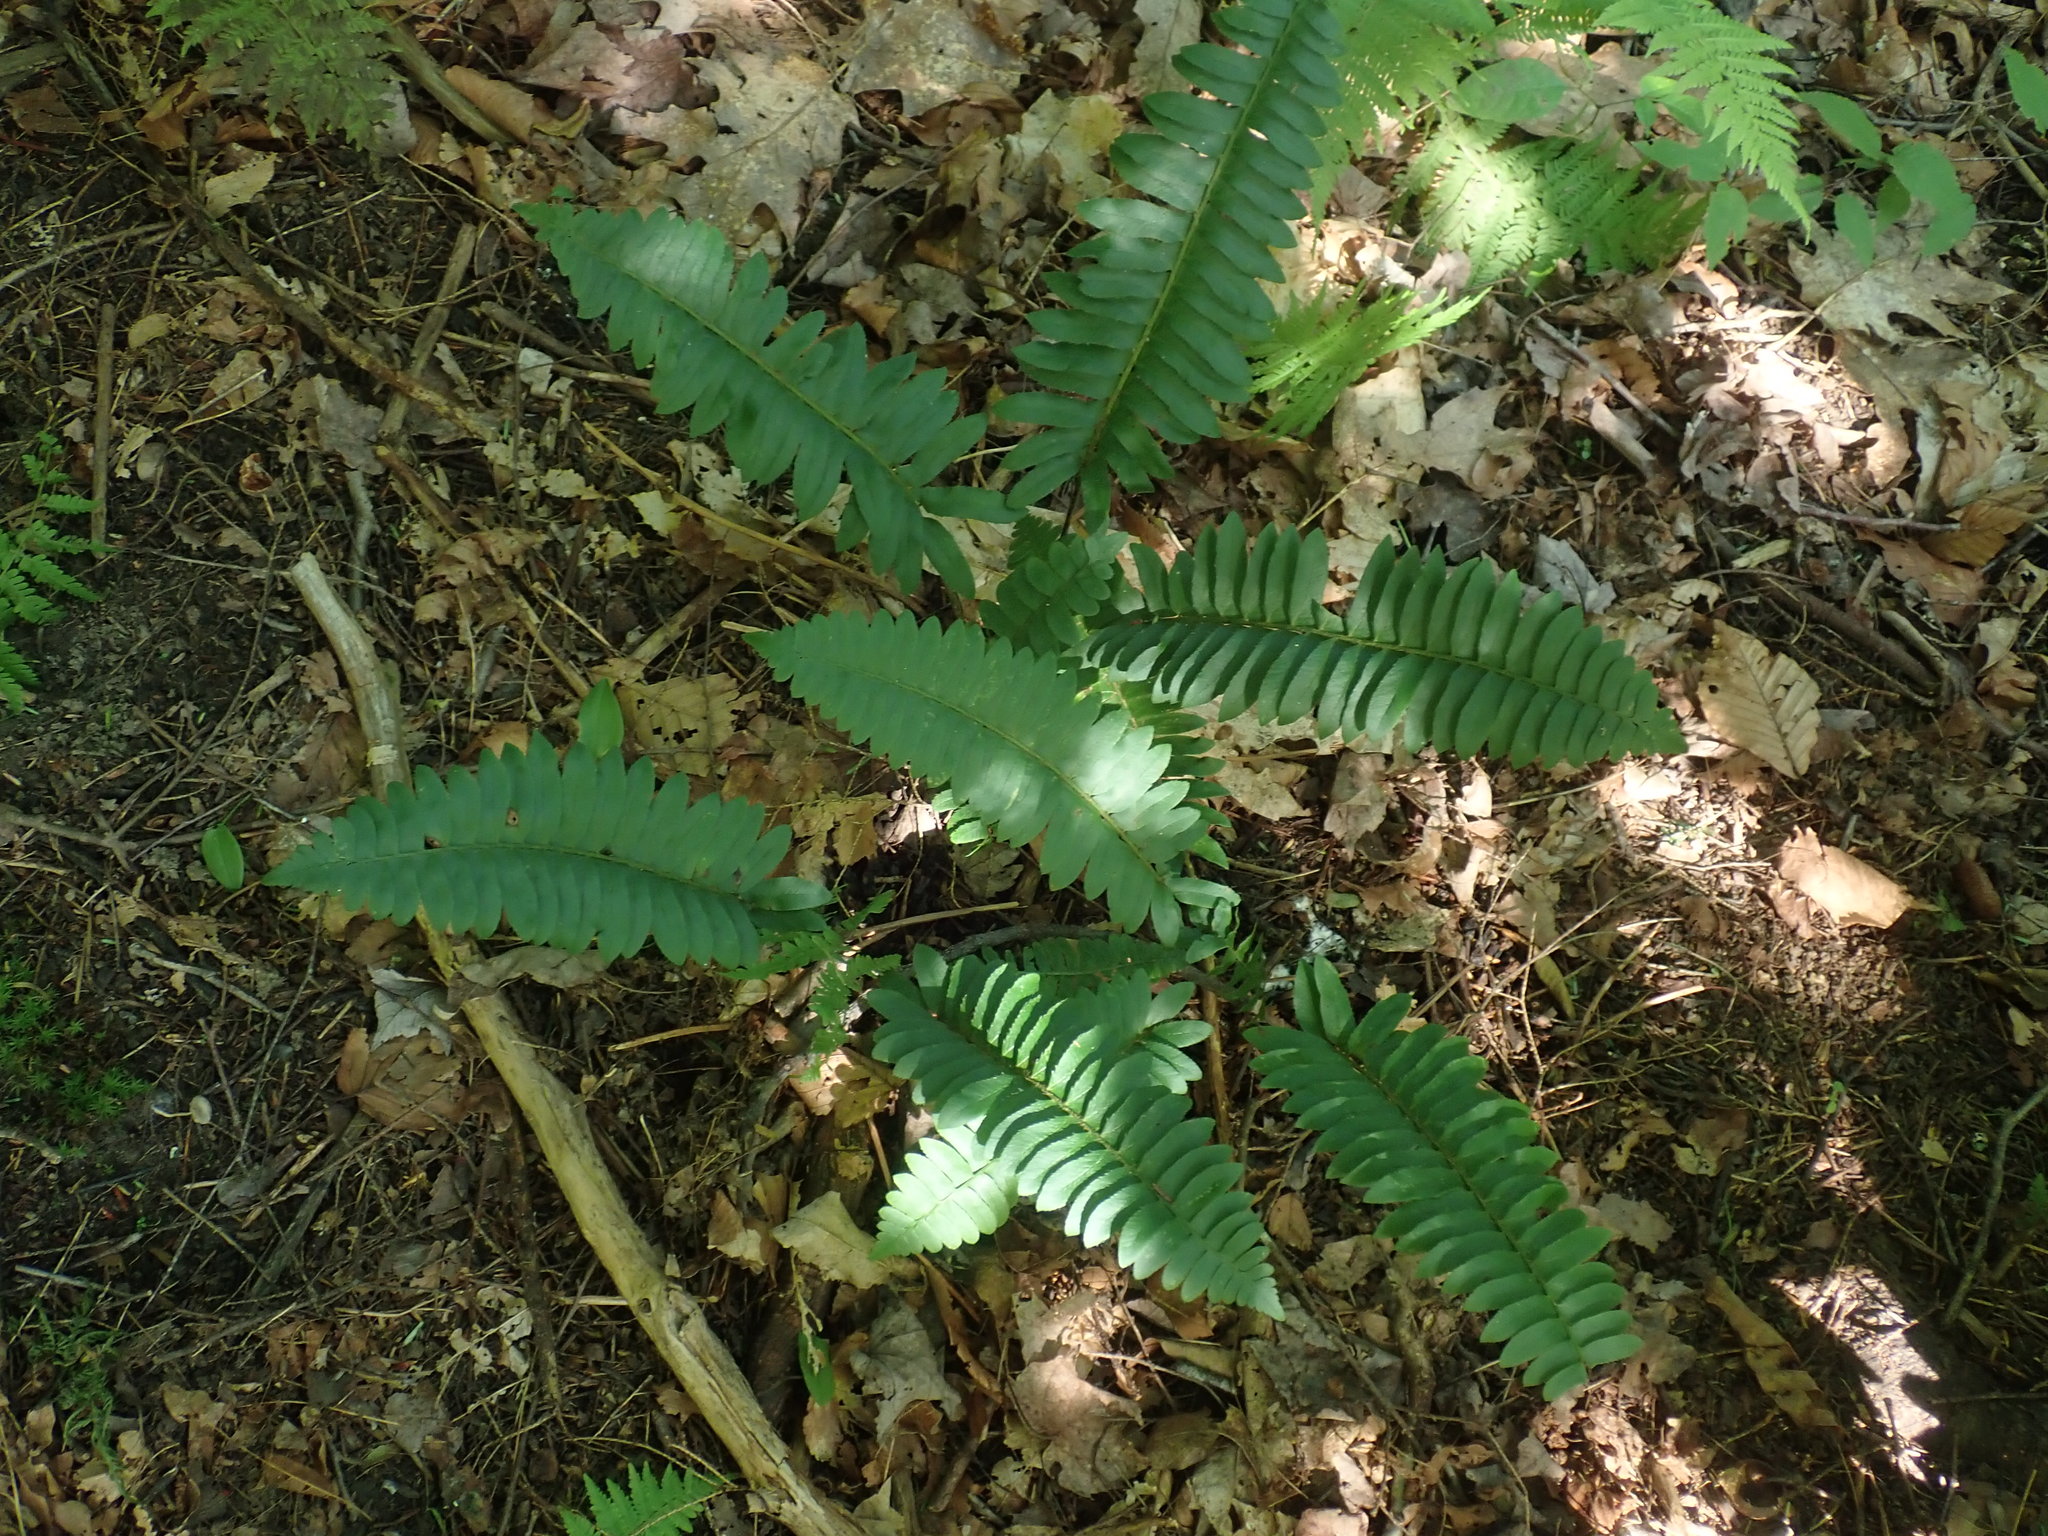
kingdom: Plantae
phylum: Tracheophyta
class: Polypodiopsida
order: Polypodiales
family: Dryopteridaceae
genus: Polystichum
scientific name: Polystichum acrostichoides
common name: Christmas fern
